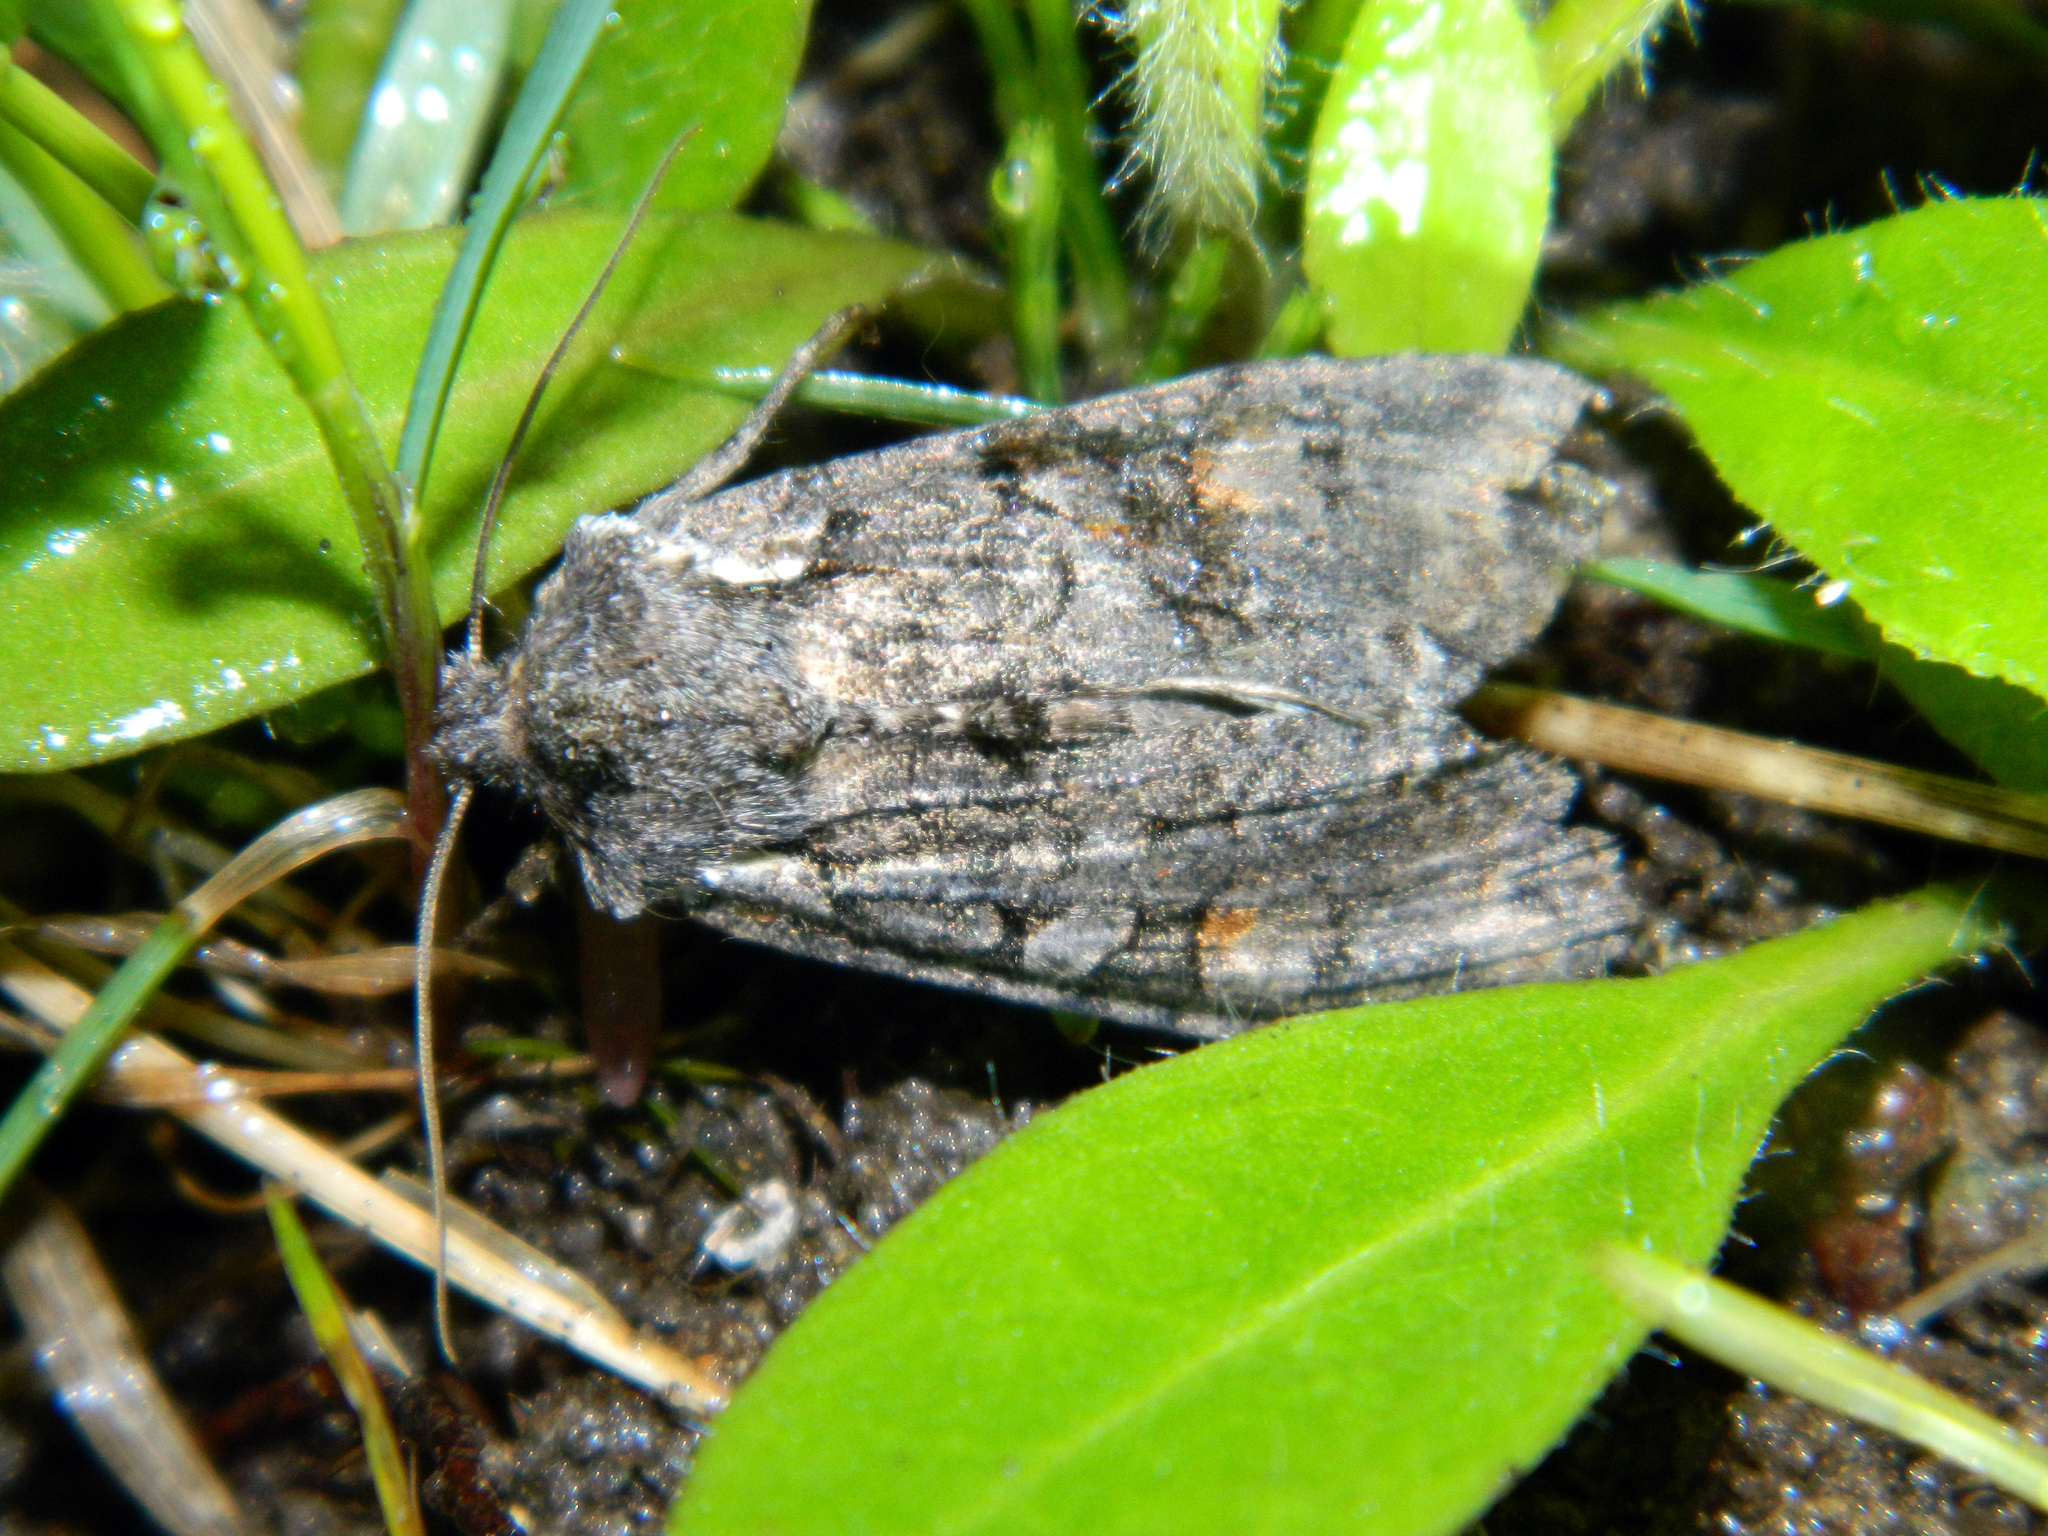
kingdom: Animalia
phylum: Arthropoda
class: Insecta
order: Lepidoptera
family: Noctuidae
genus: Lithophane
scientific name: Lithophane pexata
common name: Plush-naped pinion moth
